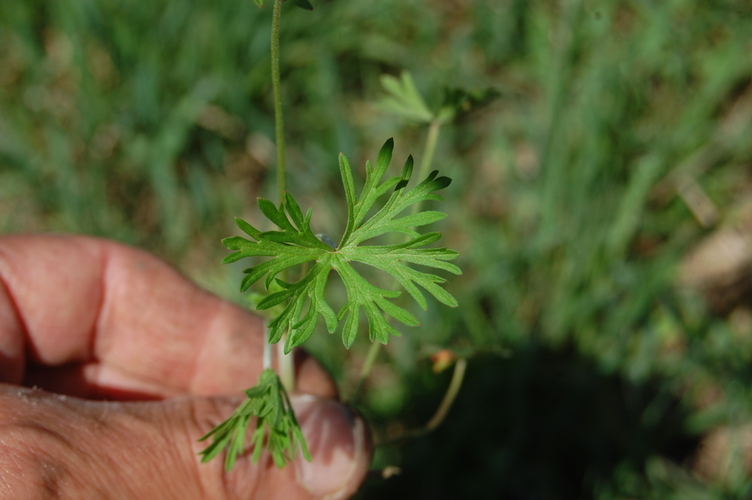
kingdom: Plantae
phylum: Tracheophyta
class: Magnoliopsida
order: Geraniales
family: Geraniaceae
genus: Geranium
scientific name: Geranium dissectum
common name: Cut-leaved crane's-bill
